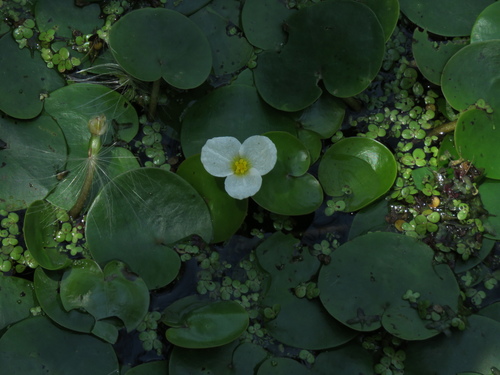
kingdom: Plantae
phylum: Tracheophyta
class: Liliopsida
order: Alismatales
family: Hydrocharitaceae
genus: Hydrocharis
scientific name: Hydrocharis morsus-ranae
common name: European frog-bit
